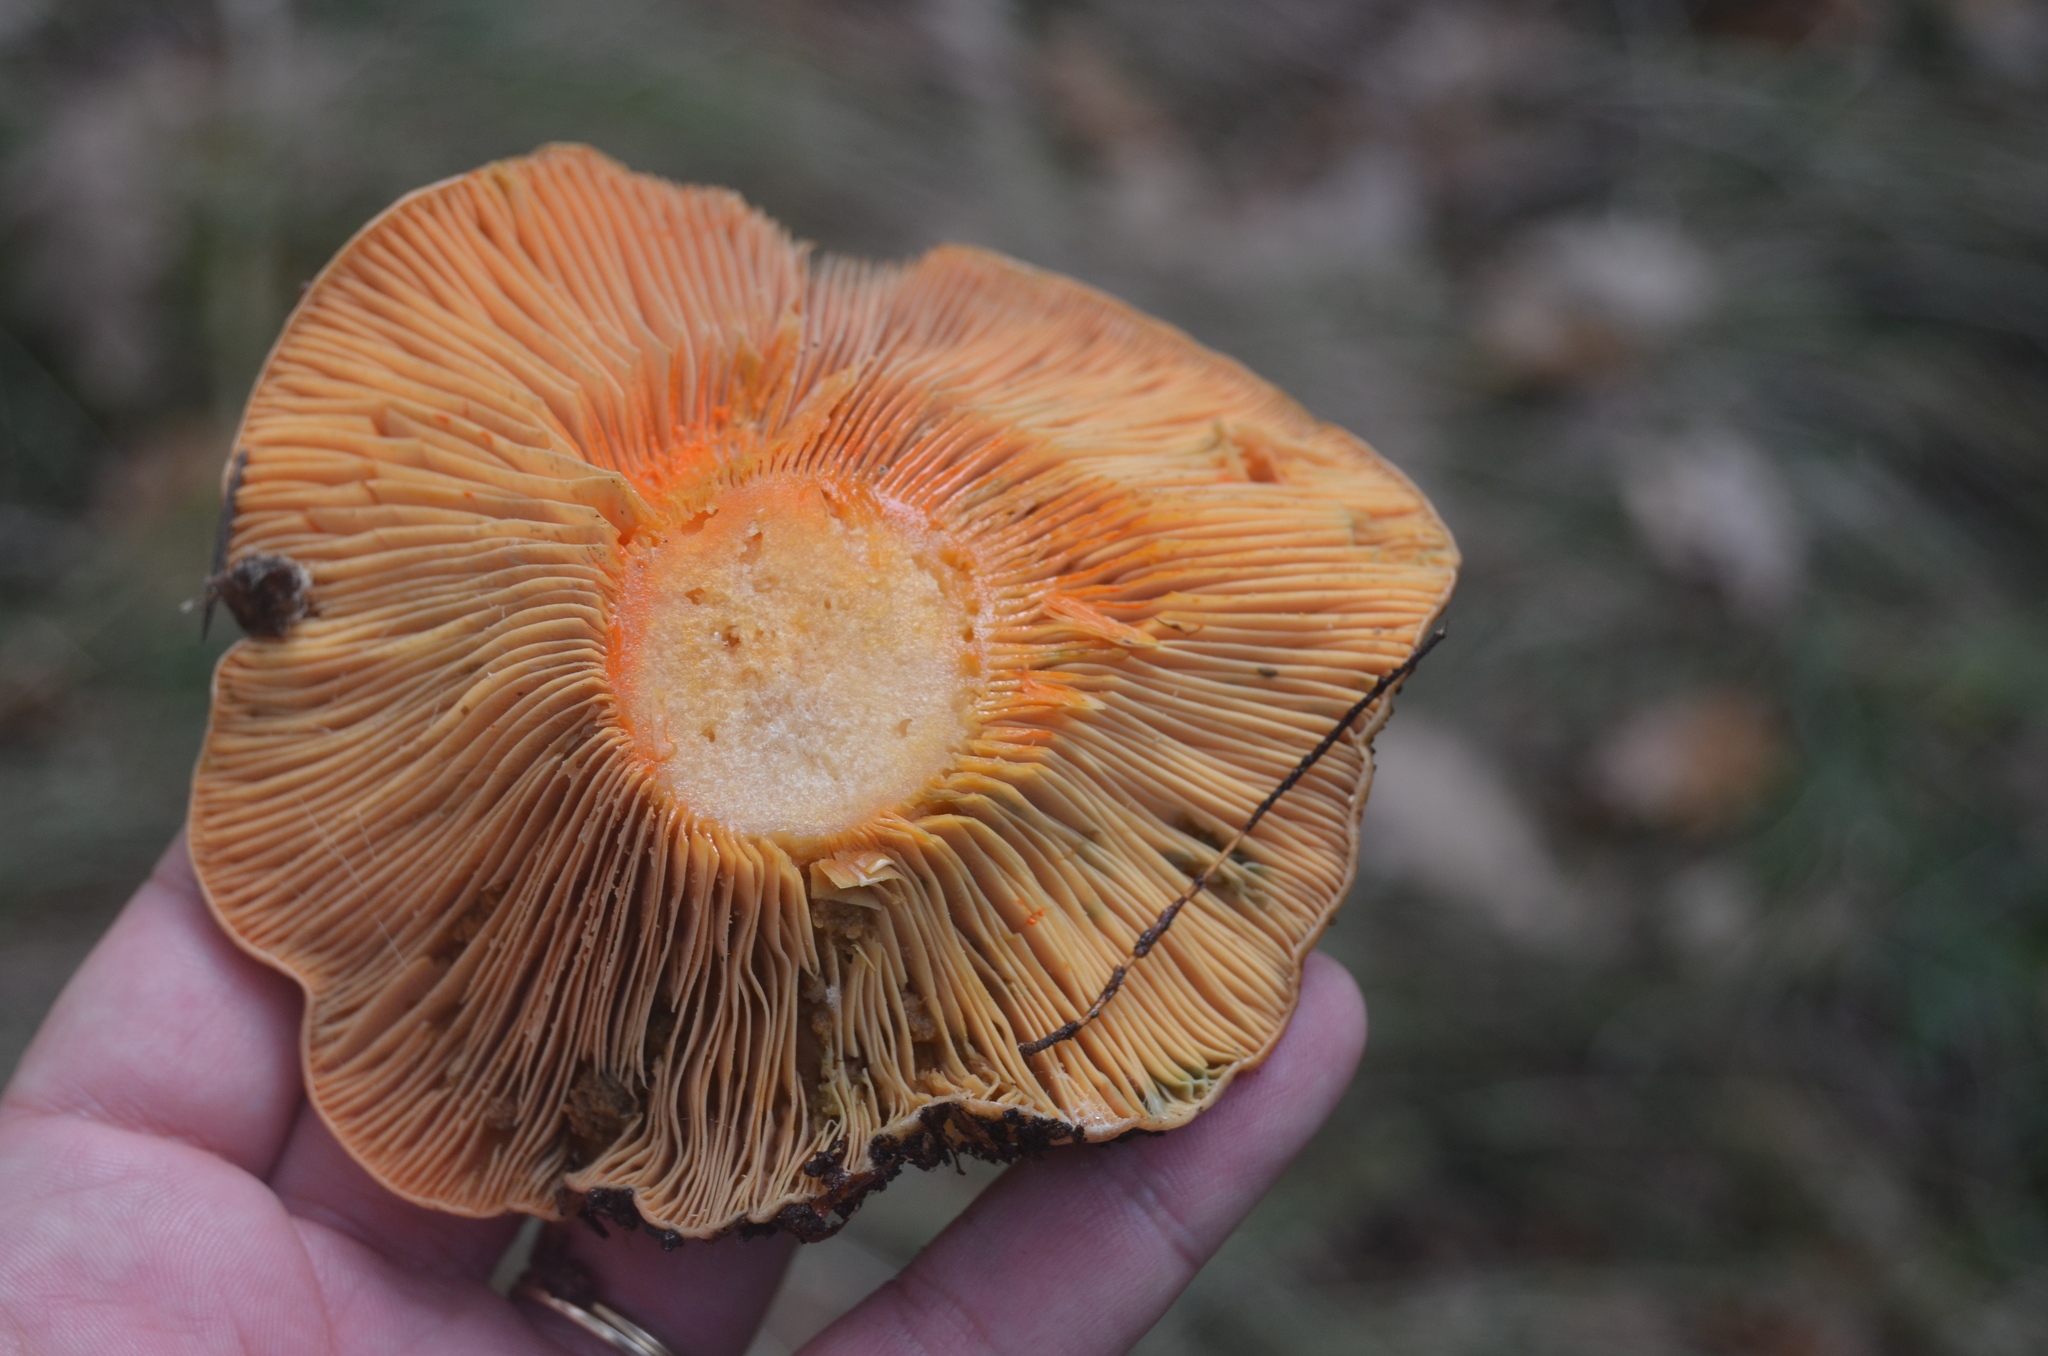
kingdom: Fungi
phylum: Basidiomycota
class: Agaricomycetes
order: Russulales
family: Russulaceae
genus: Lactarius
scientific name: Lactarius deliciosus
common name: Saffron milk-cap
